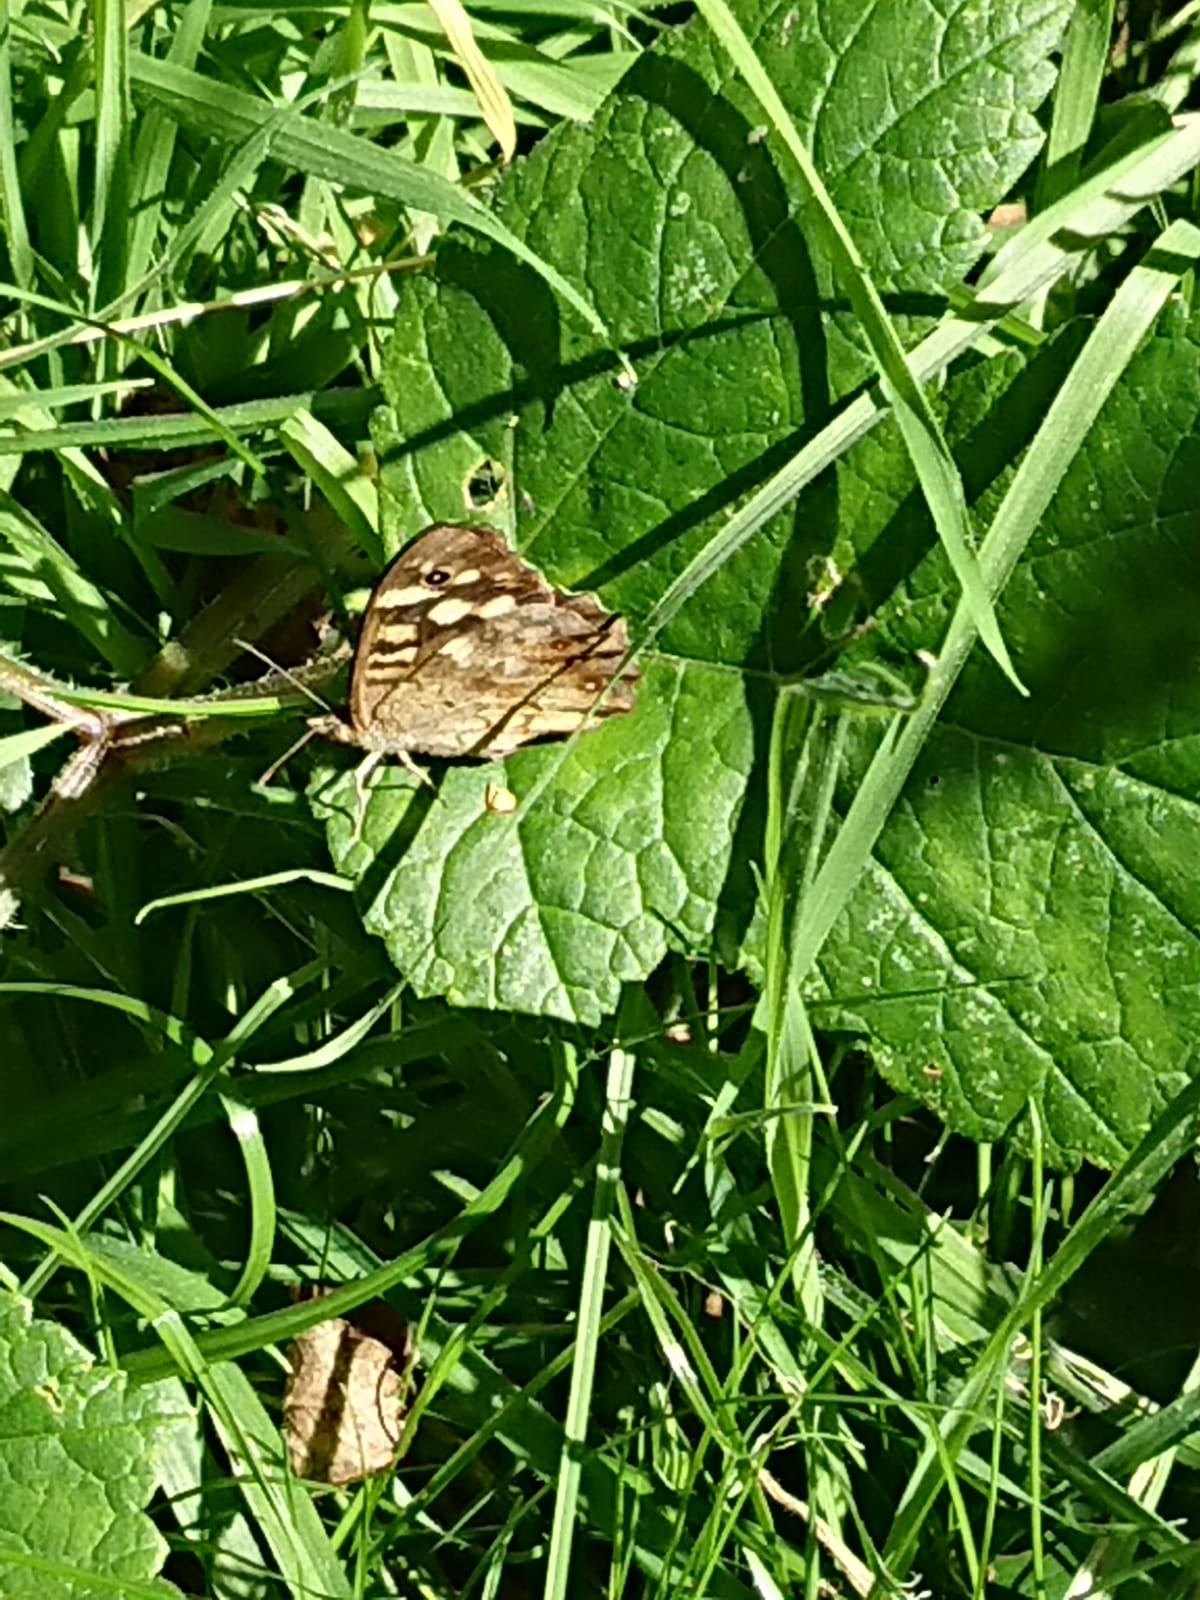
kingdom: Animalia
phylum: Arthropoda
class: Insecta
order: Lepidoptera
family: Nymphalidae
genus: Pararge
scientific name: Pararge aegeria
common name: Speckled wood
